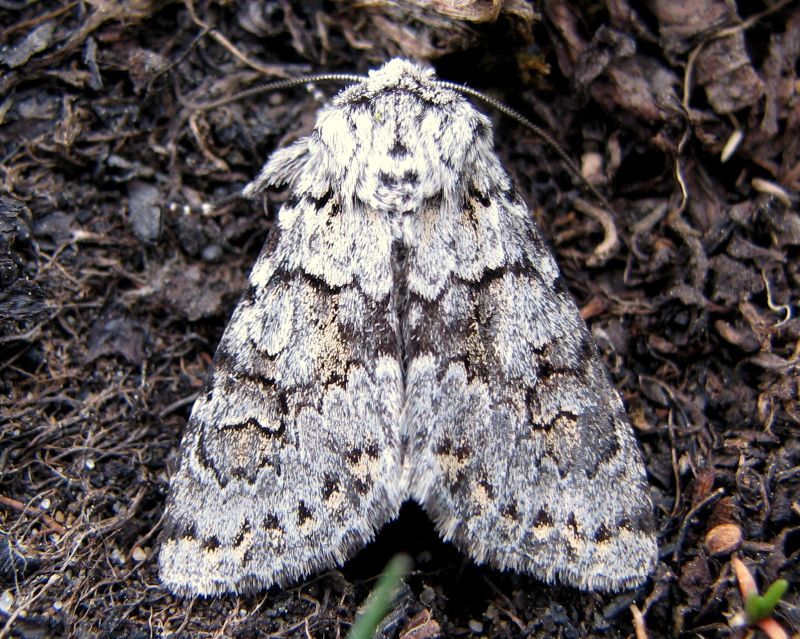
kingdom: Animalia
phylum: Arthropoda
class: Insecta
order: Lepidoptera
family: Noctuidae
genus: Lasionycta
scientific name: Lasionycta mutilata
